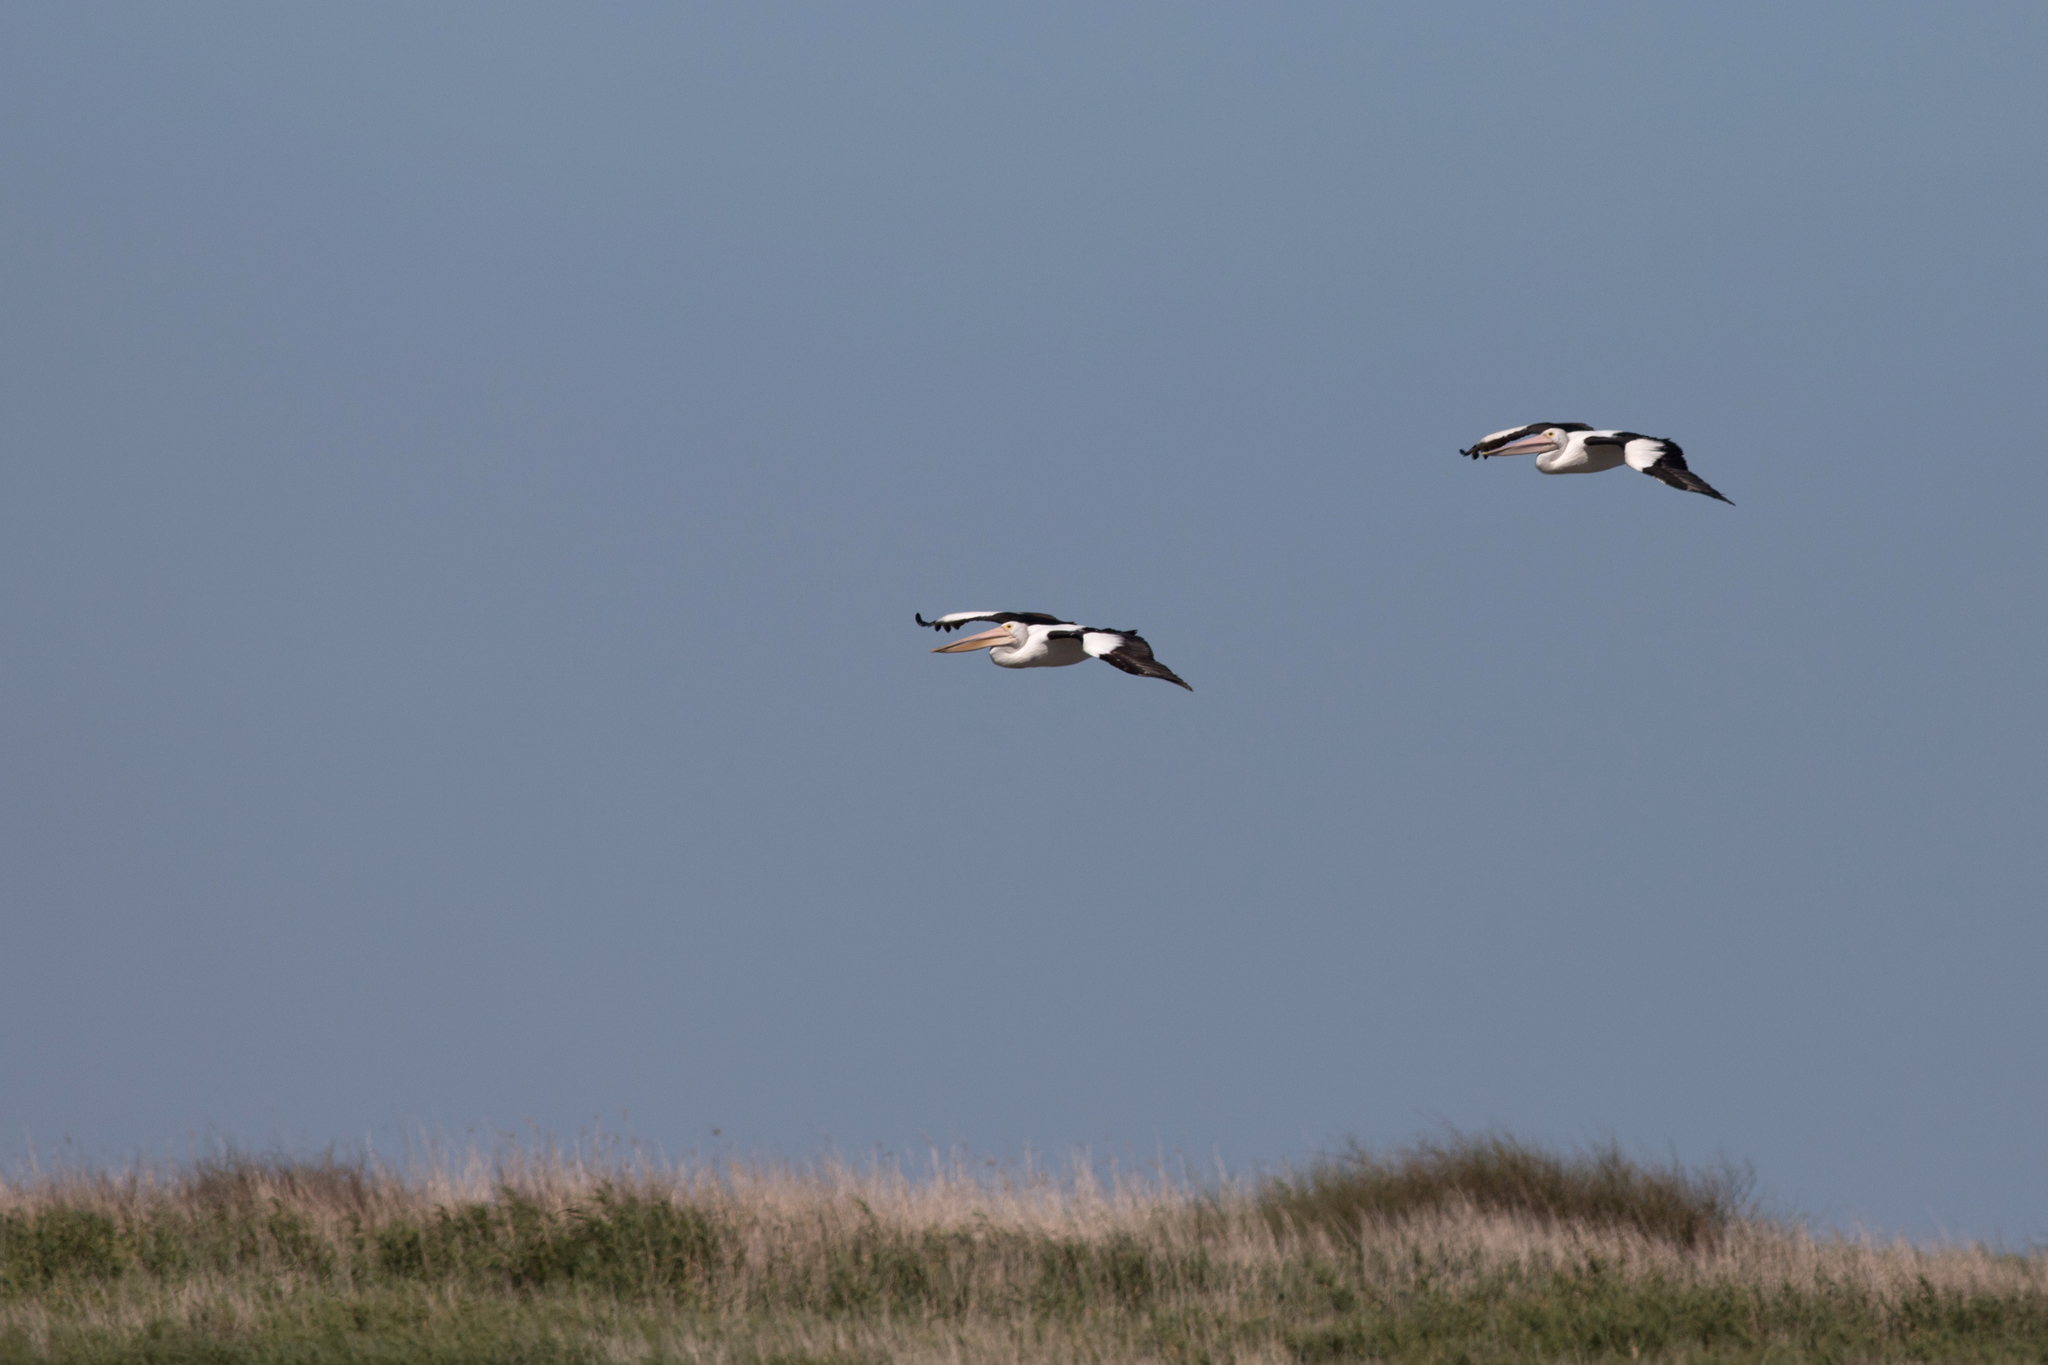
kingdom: Animalia
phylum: Chordata
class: Aves
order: Pelecaniformes
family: Pelecanidae
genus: Pelecanus
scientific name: Pelecanus conspicillatus
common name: Australian pelican
